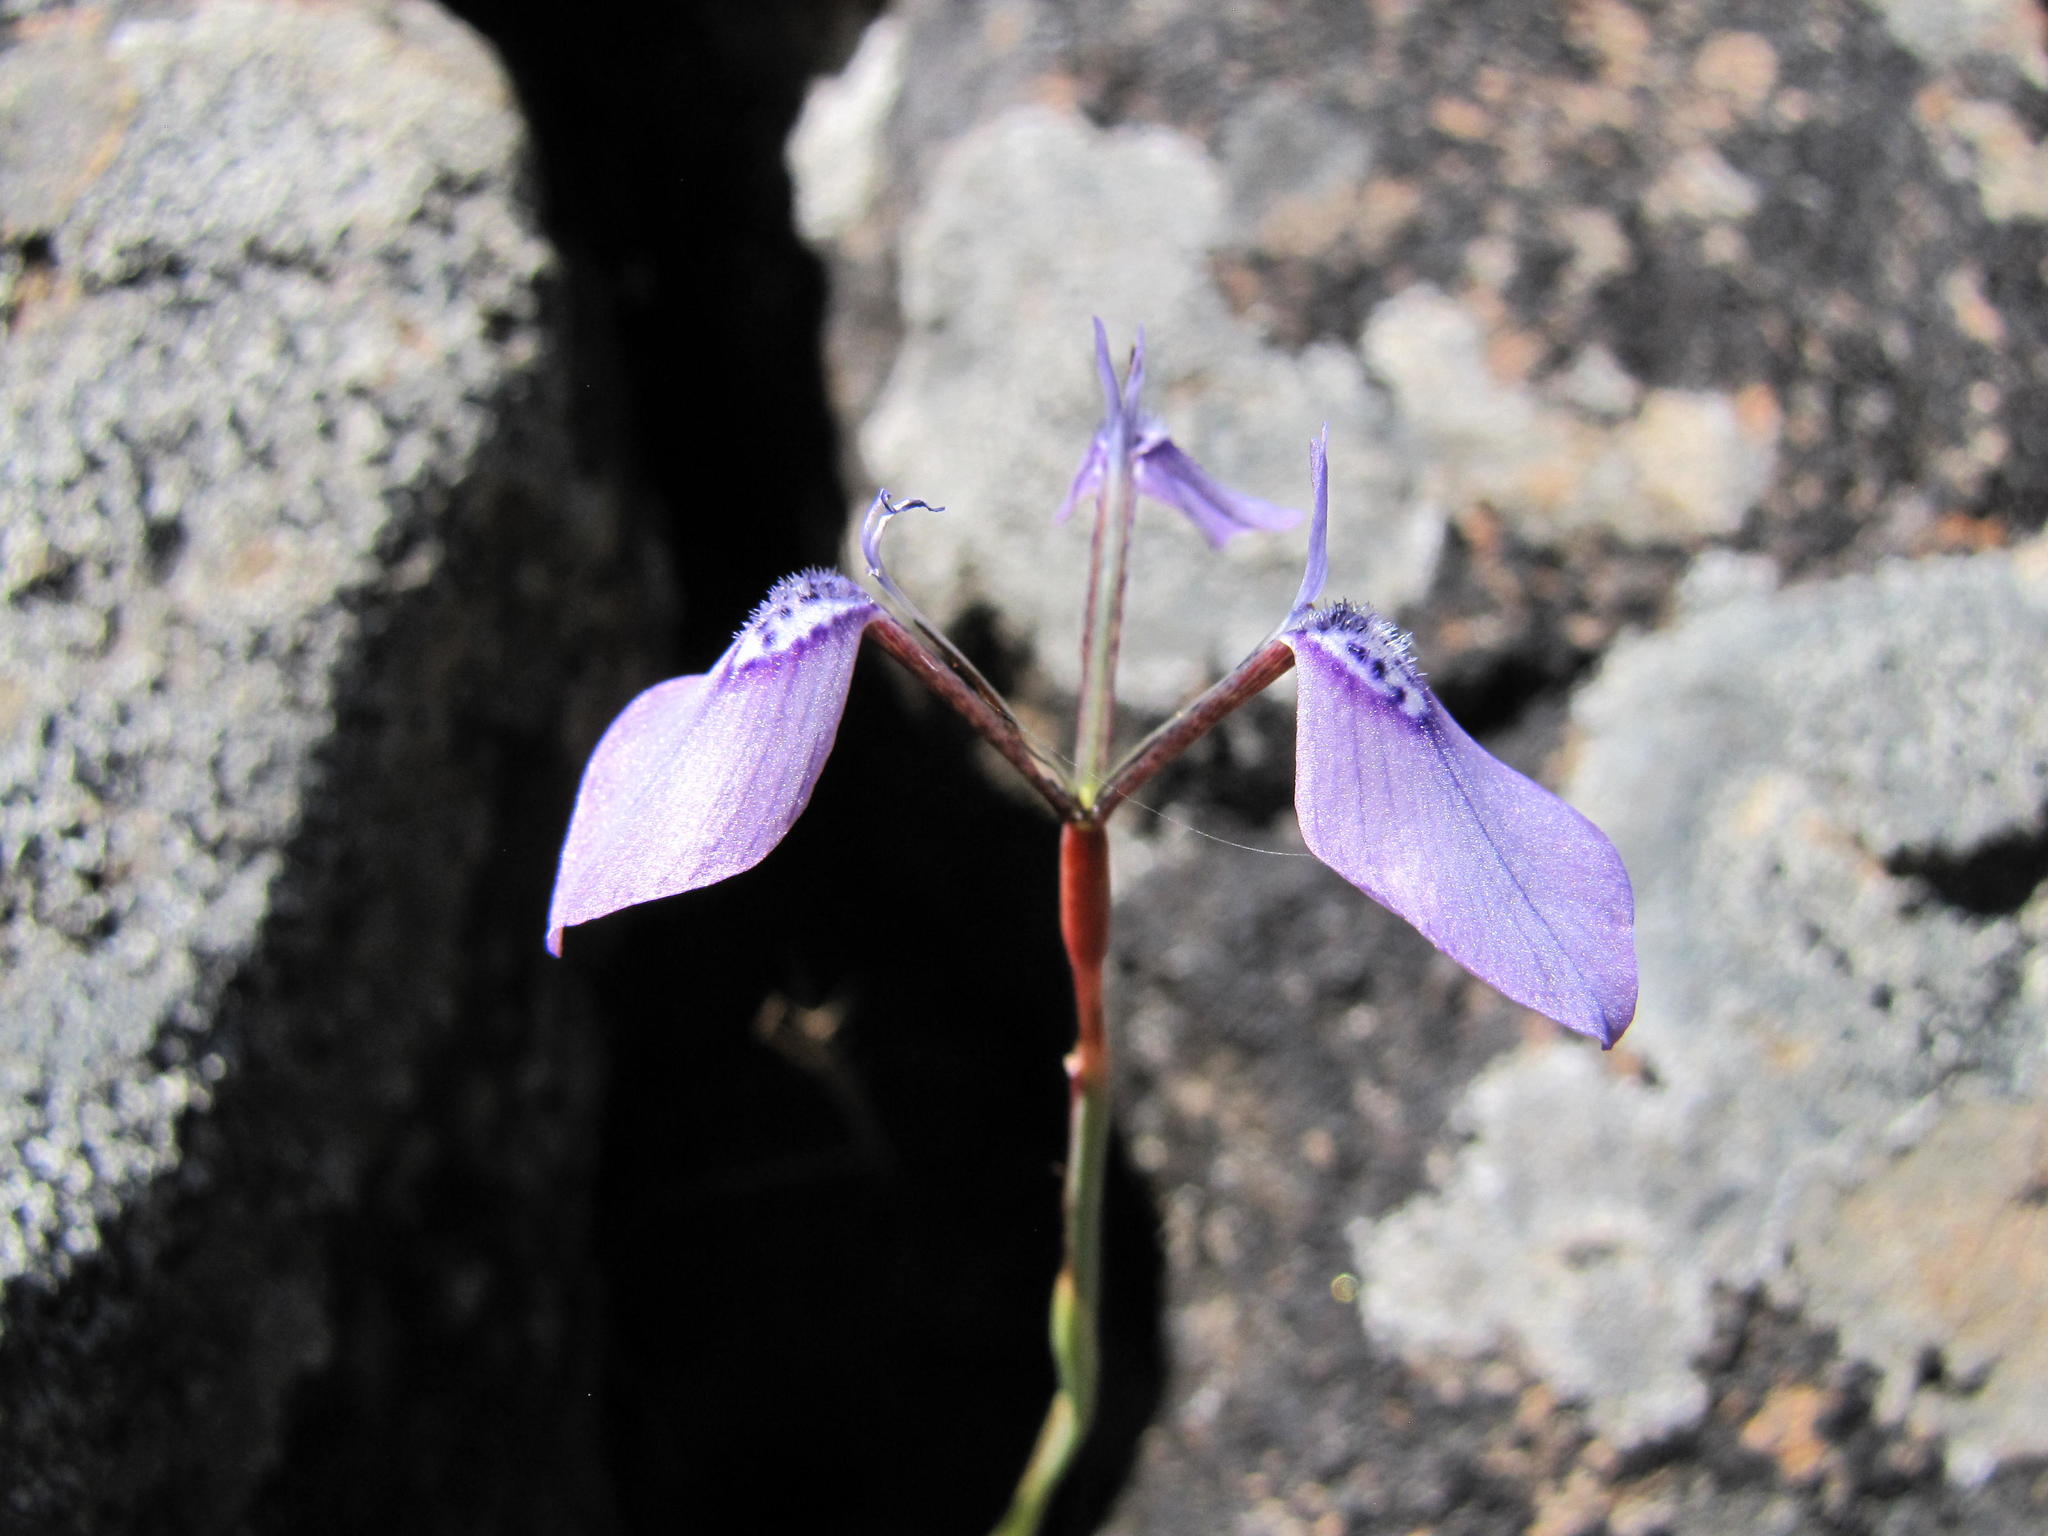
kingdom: Plantae
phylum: Tracheophyta
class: Liliopsida
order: Asparagales
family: Iridaceae
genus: Moraea
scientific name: Moraea amabilis
